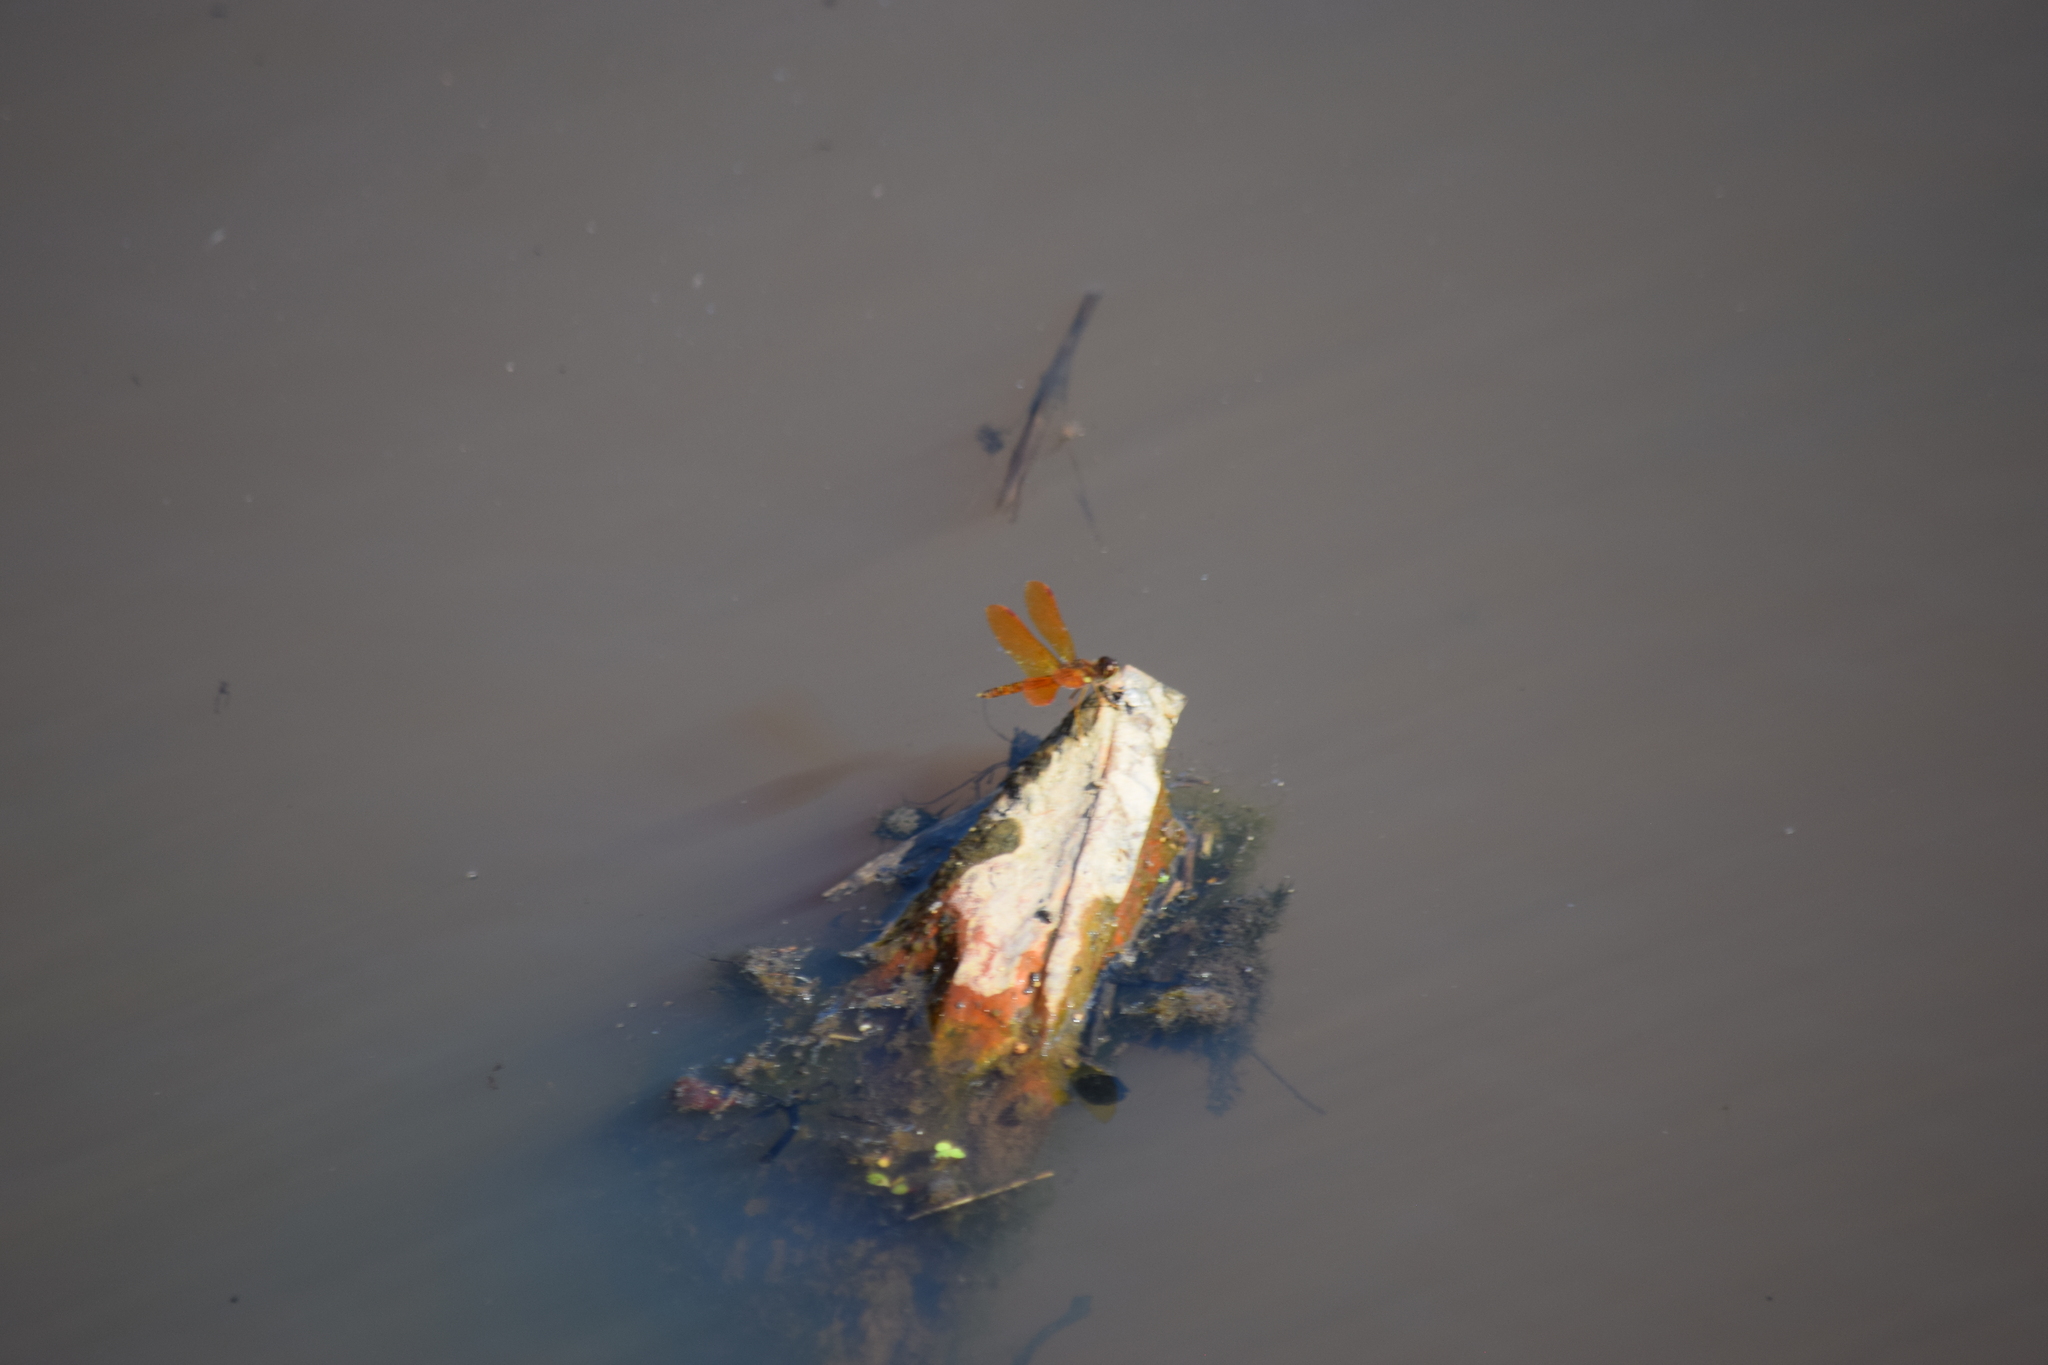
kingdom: Animalia
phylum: Arthropoda
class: Insecta
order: Odonata
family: Libellulidae
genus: Perithemis
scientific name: Perithemis tenera
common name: Eastern amberwing
